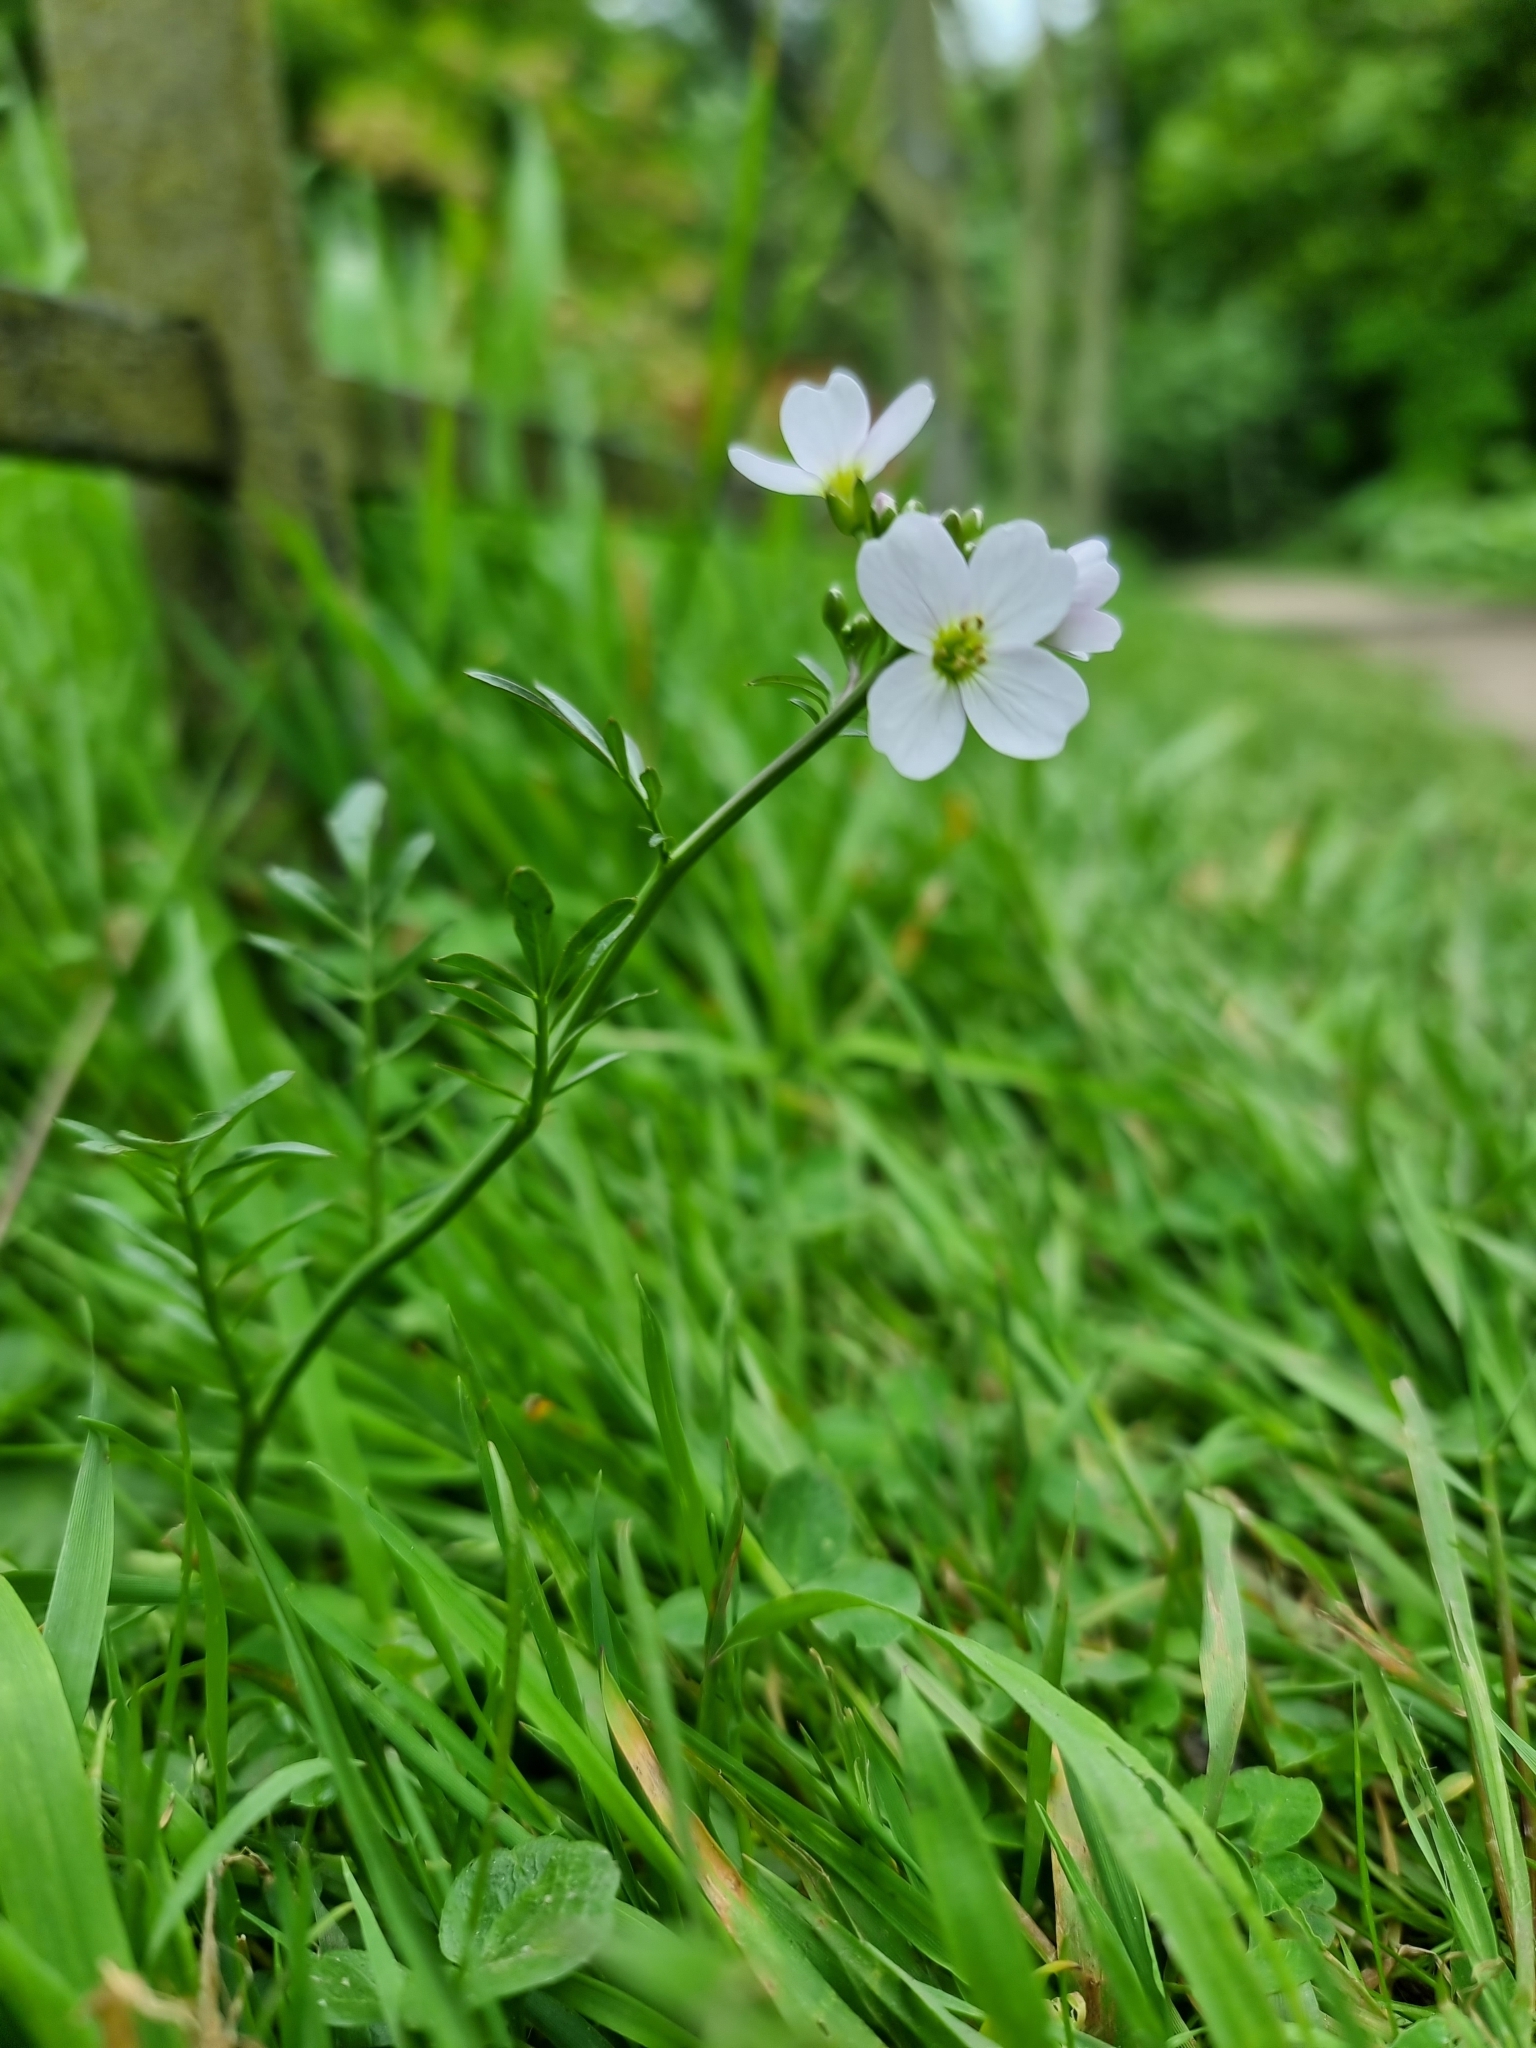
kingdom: Plantae
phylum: Tracheophyta
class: Magnoliopsida
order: Brassicales
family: Brassicaceae
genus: Cardamine
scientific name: Cardamine pratensis
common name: Cuckoo flower
